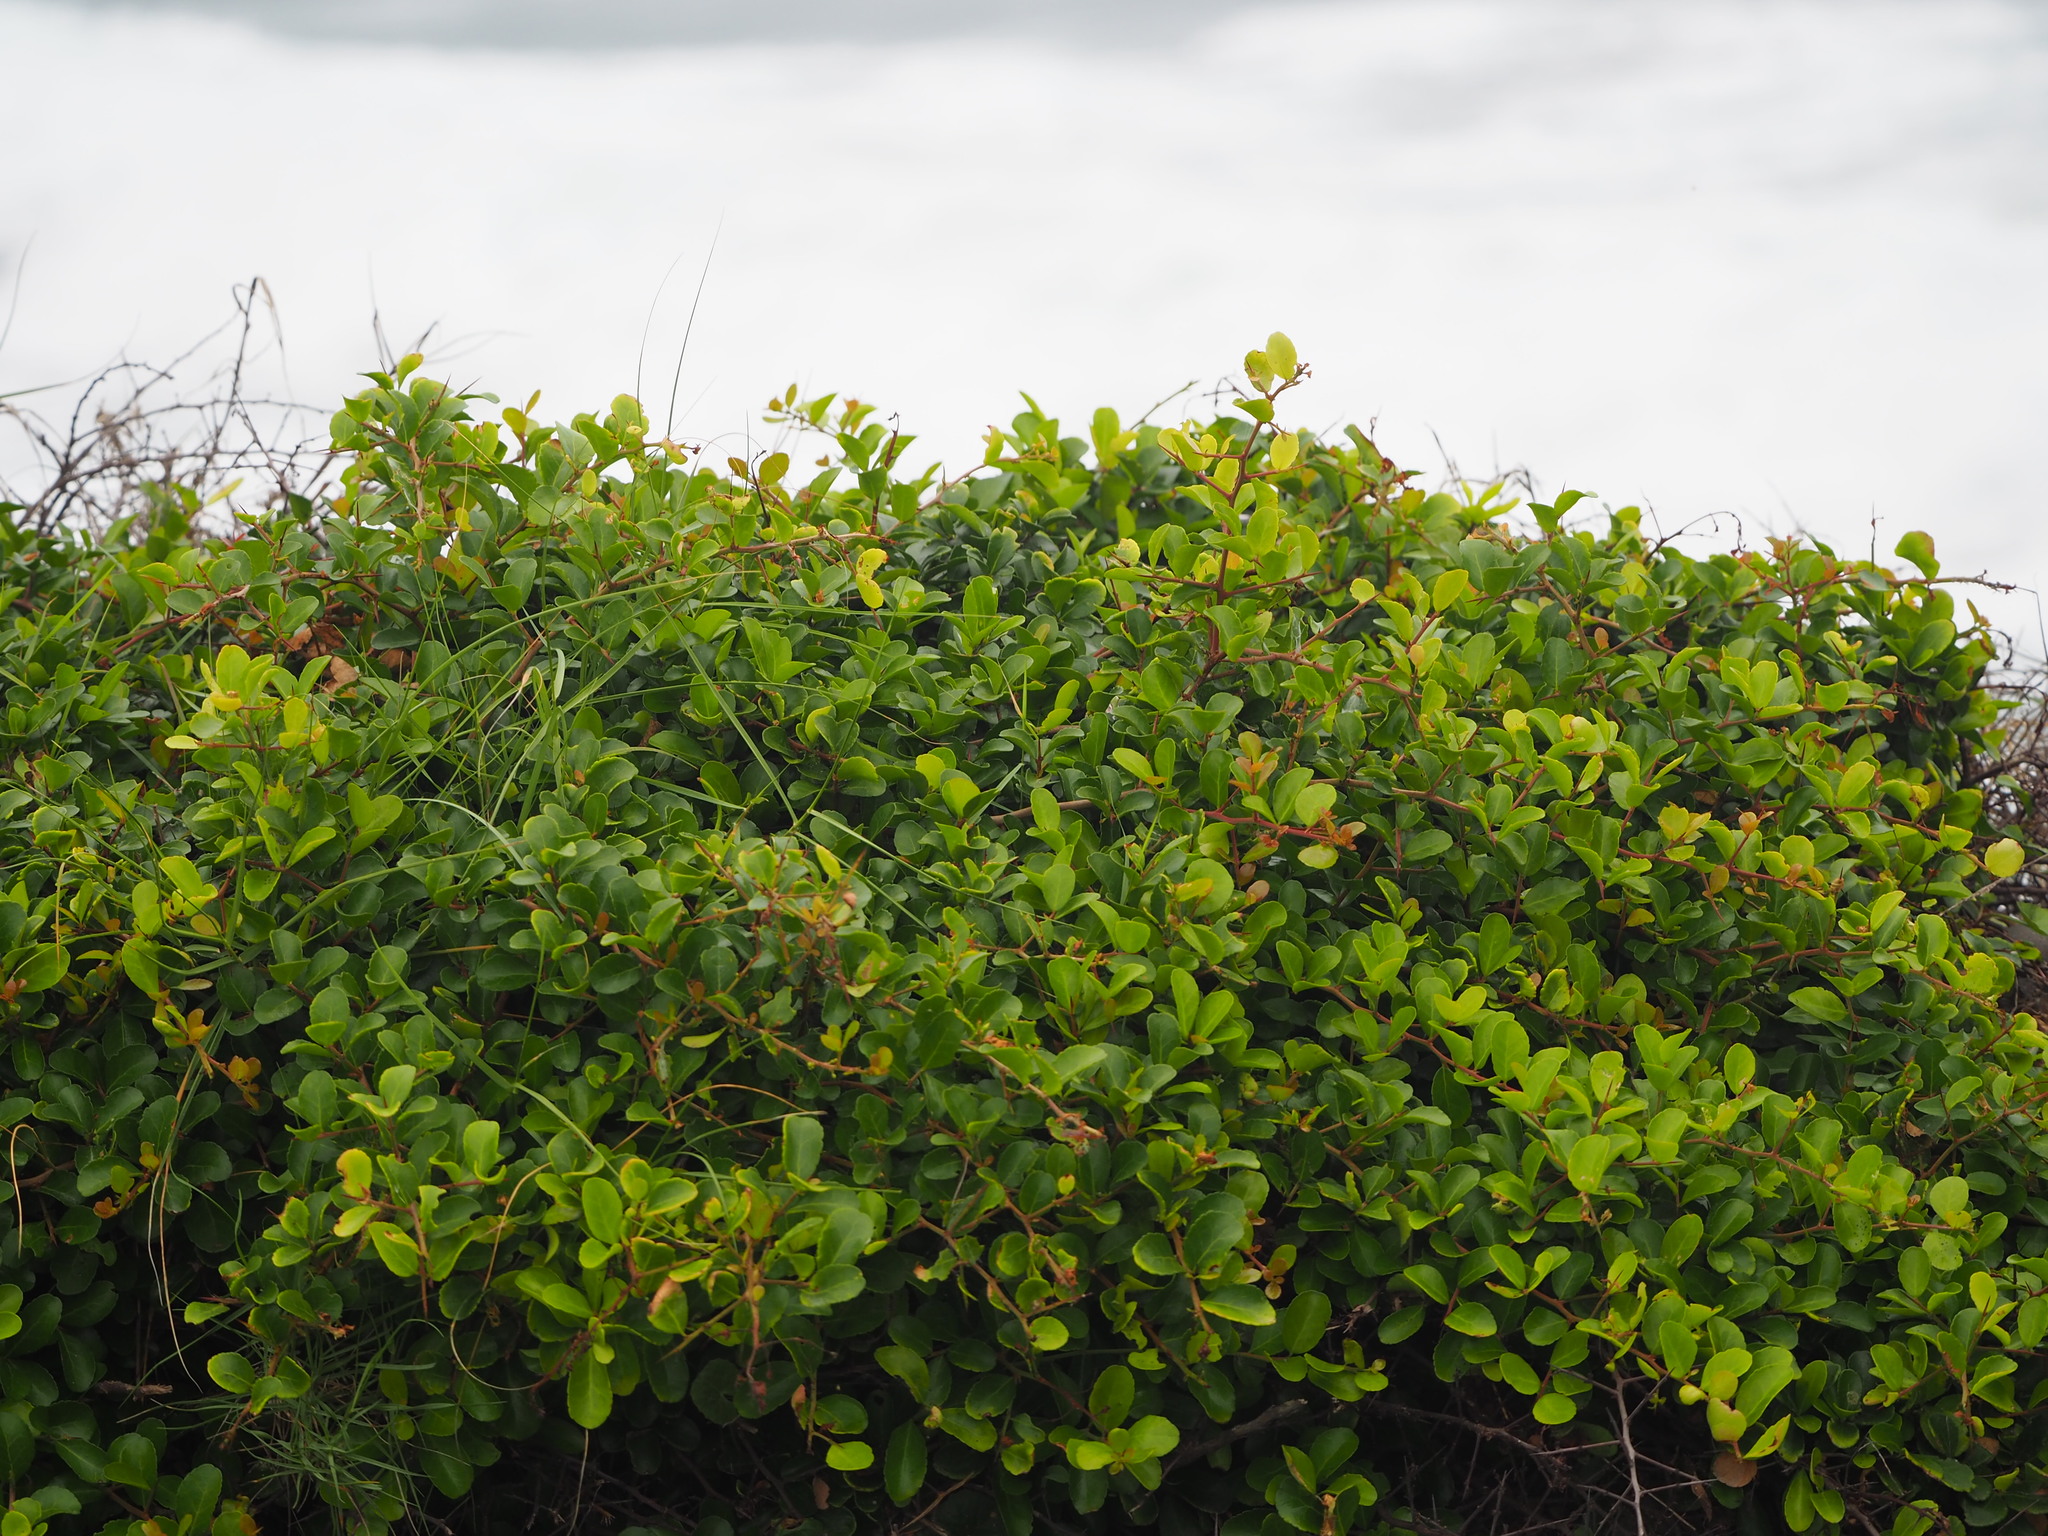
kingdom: Plantae
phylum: Tracheophyta
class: Magnoliopsida
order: Celastrales
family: Celastraceae
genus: Gymnosporia
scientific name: Gymnosporia diversifolia
